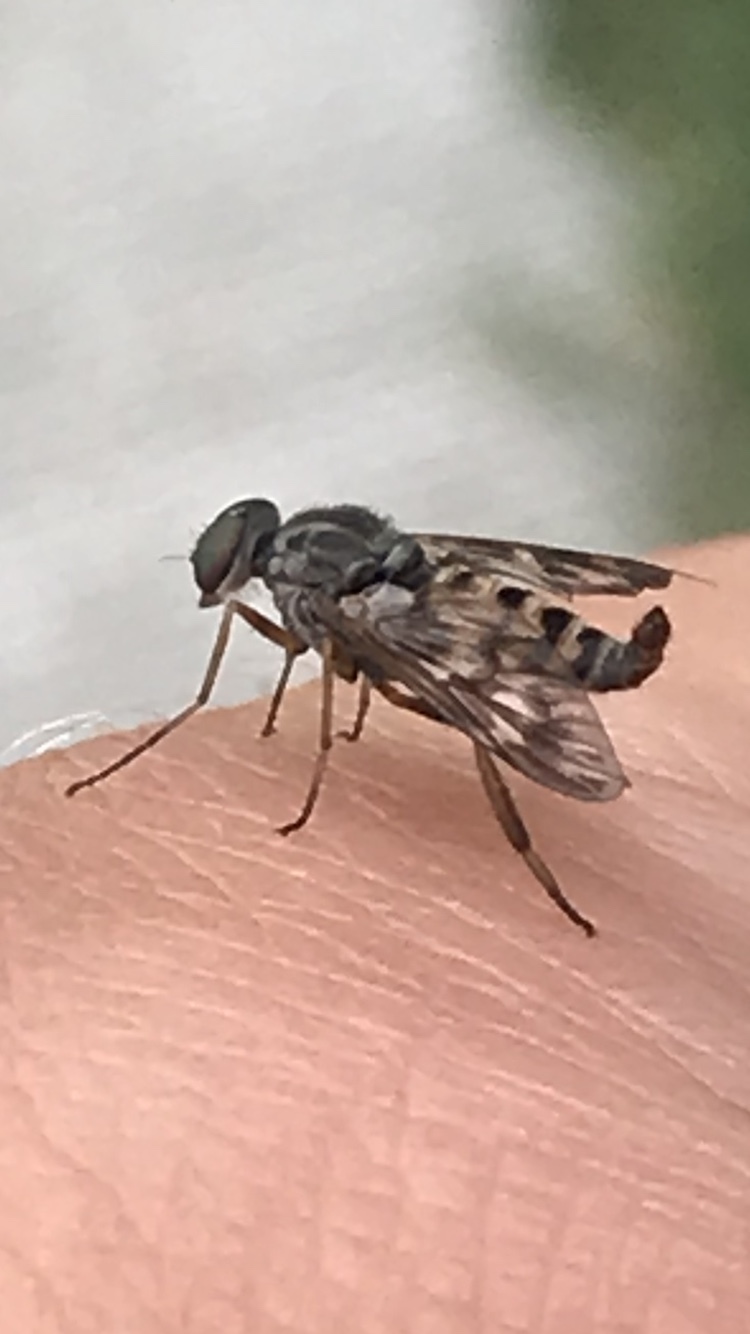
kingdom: Animalia
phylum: Arthropoda
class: Insecta
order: Diptera
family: Athericidae
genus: Atherix
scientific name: Atherix pachypus
